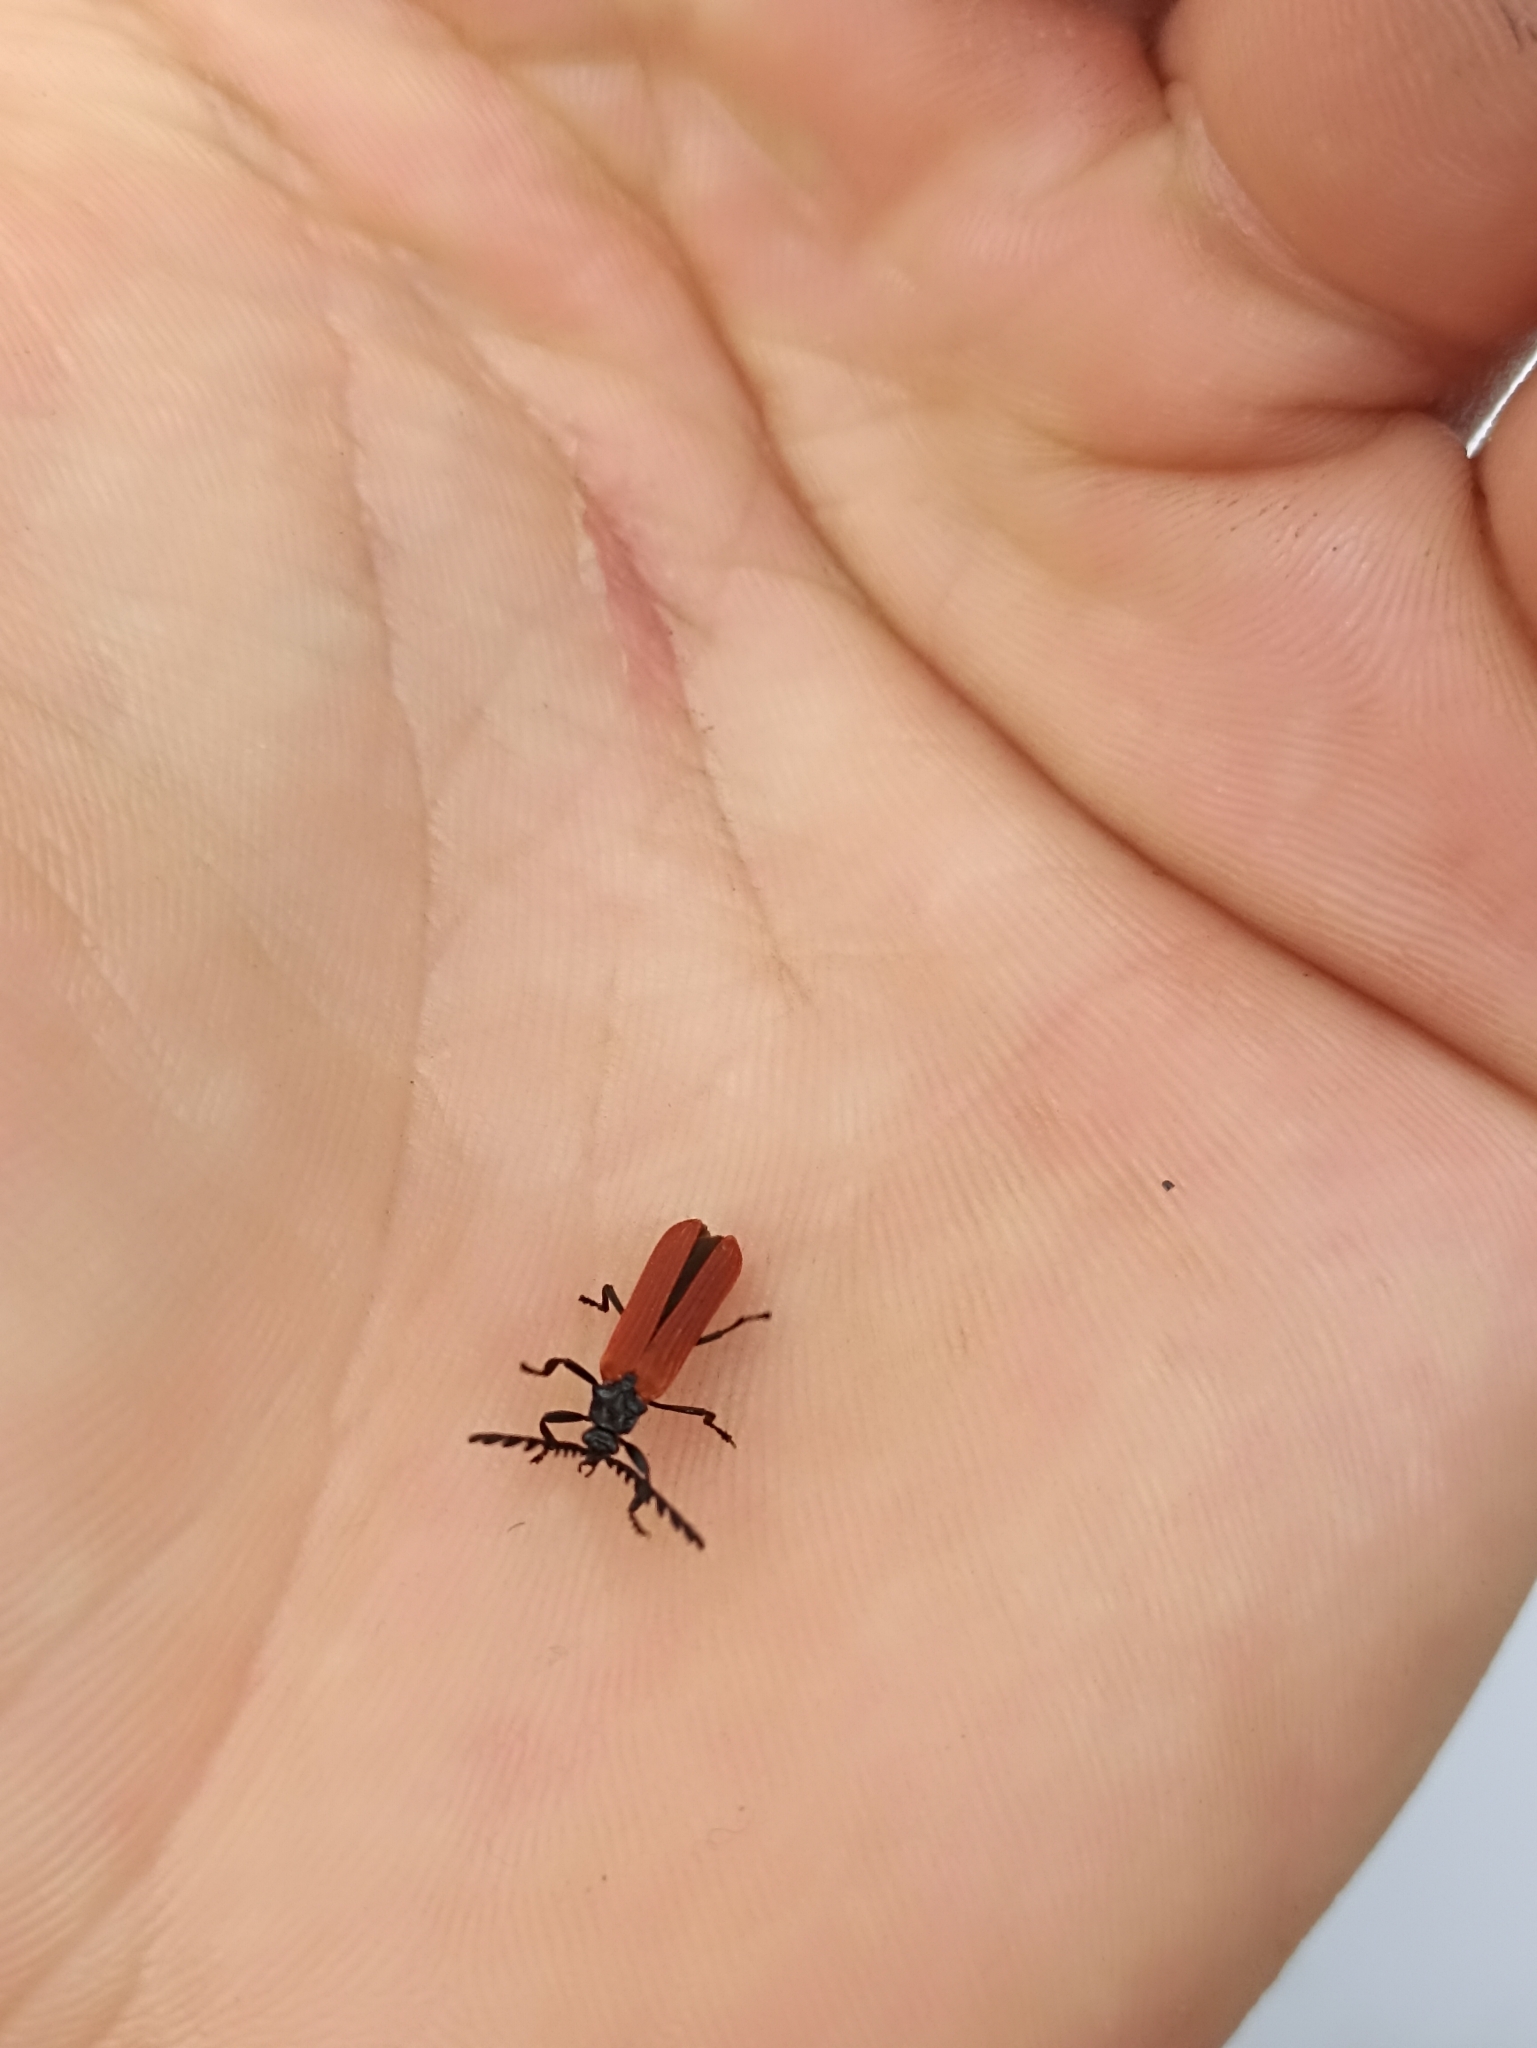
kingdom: Animalia
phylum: Arthropoda
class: Insecta
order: Coleoptera
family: Lycidae
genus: Porrostoma
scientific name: Porrostoma rufipenne
